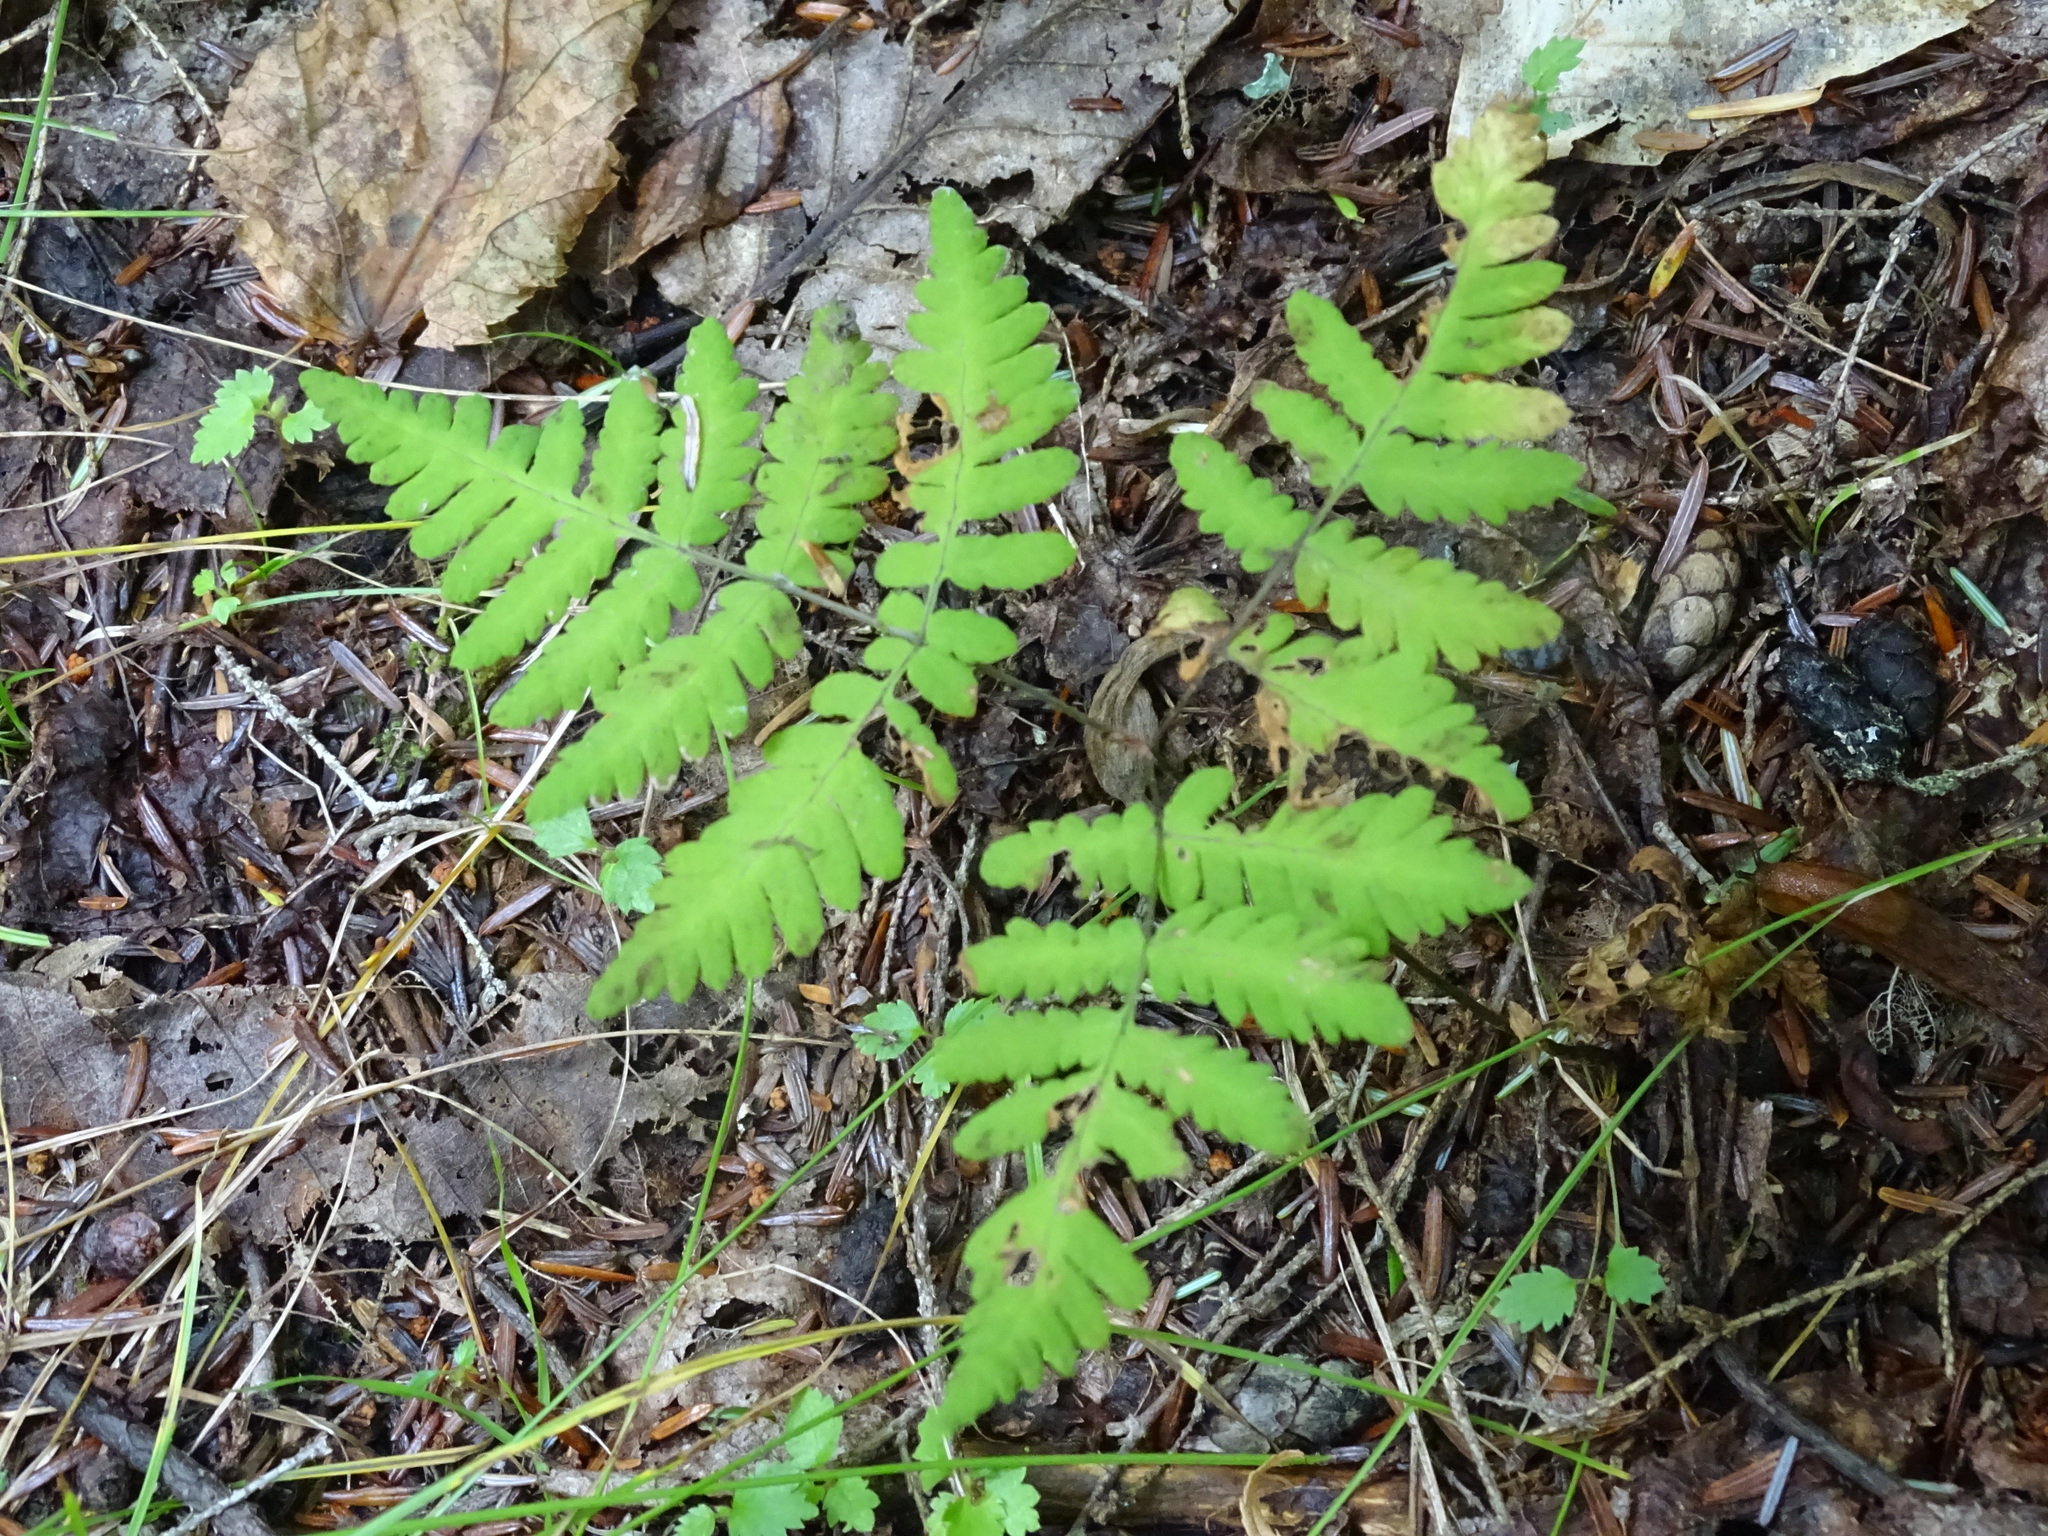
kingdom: Plantae
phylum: Tracheophyta
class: Polypodiopsida
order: Polypodiales
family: Cystopteridaceae
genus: Gymnocarpium
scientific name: Gymnocarpium dryopteris
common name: Oak fern
